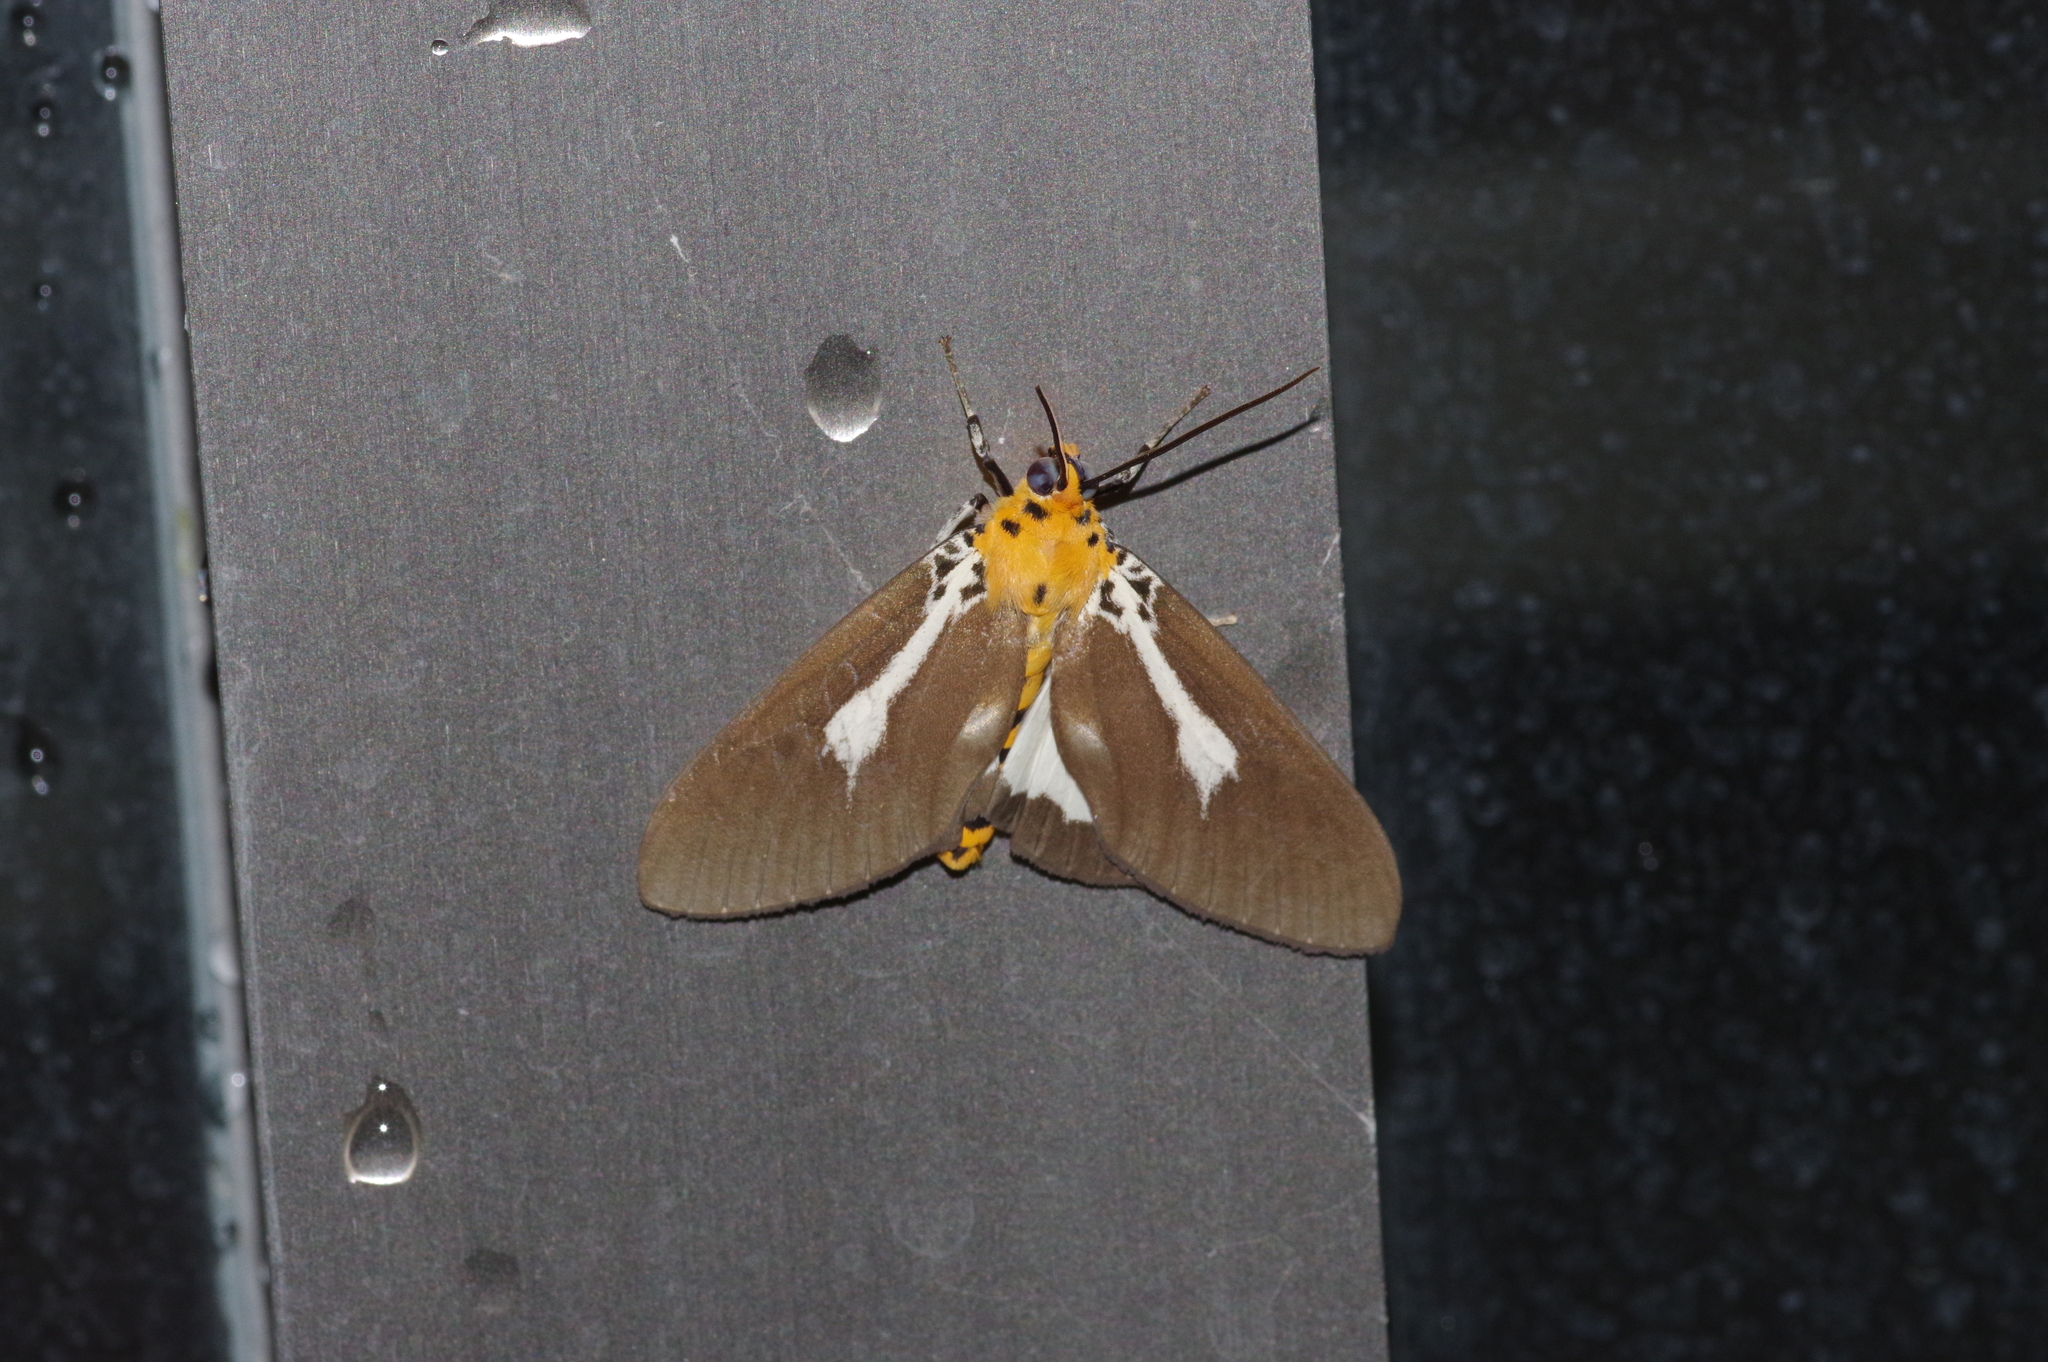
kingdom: Animalia
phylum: Arthropoda
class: Insecta
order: Lepidoptera
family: Erebidae
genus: Asota
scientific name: Asota heliconia
